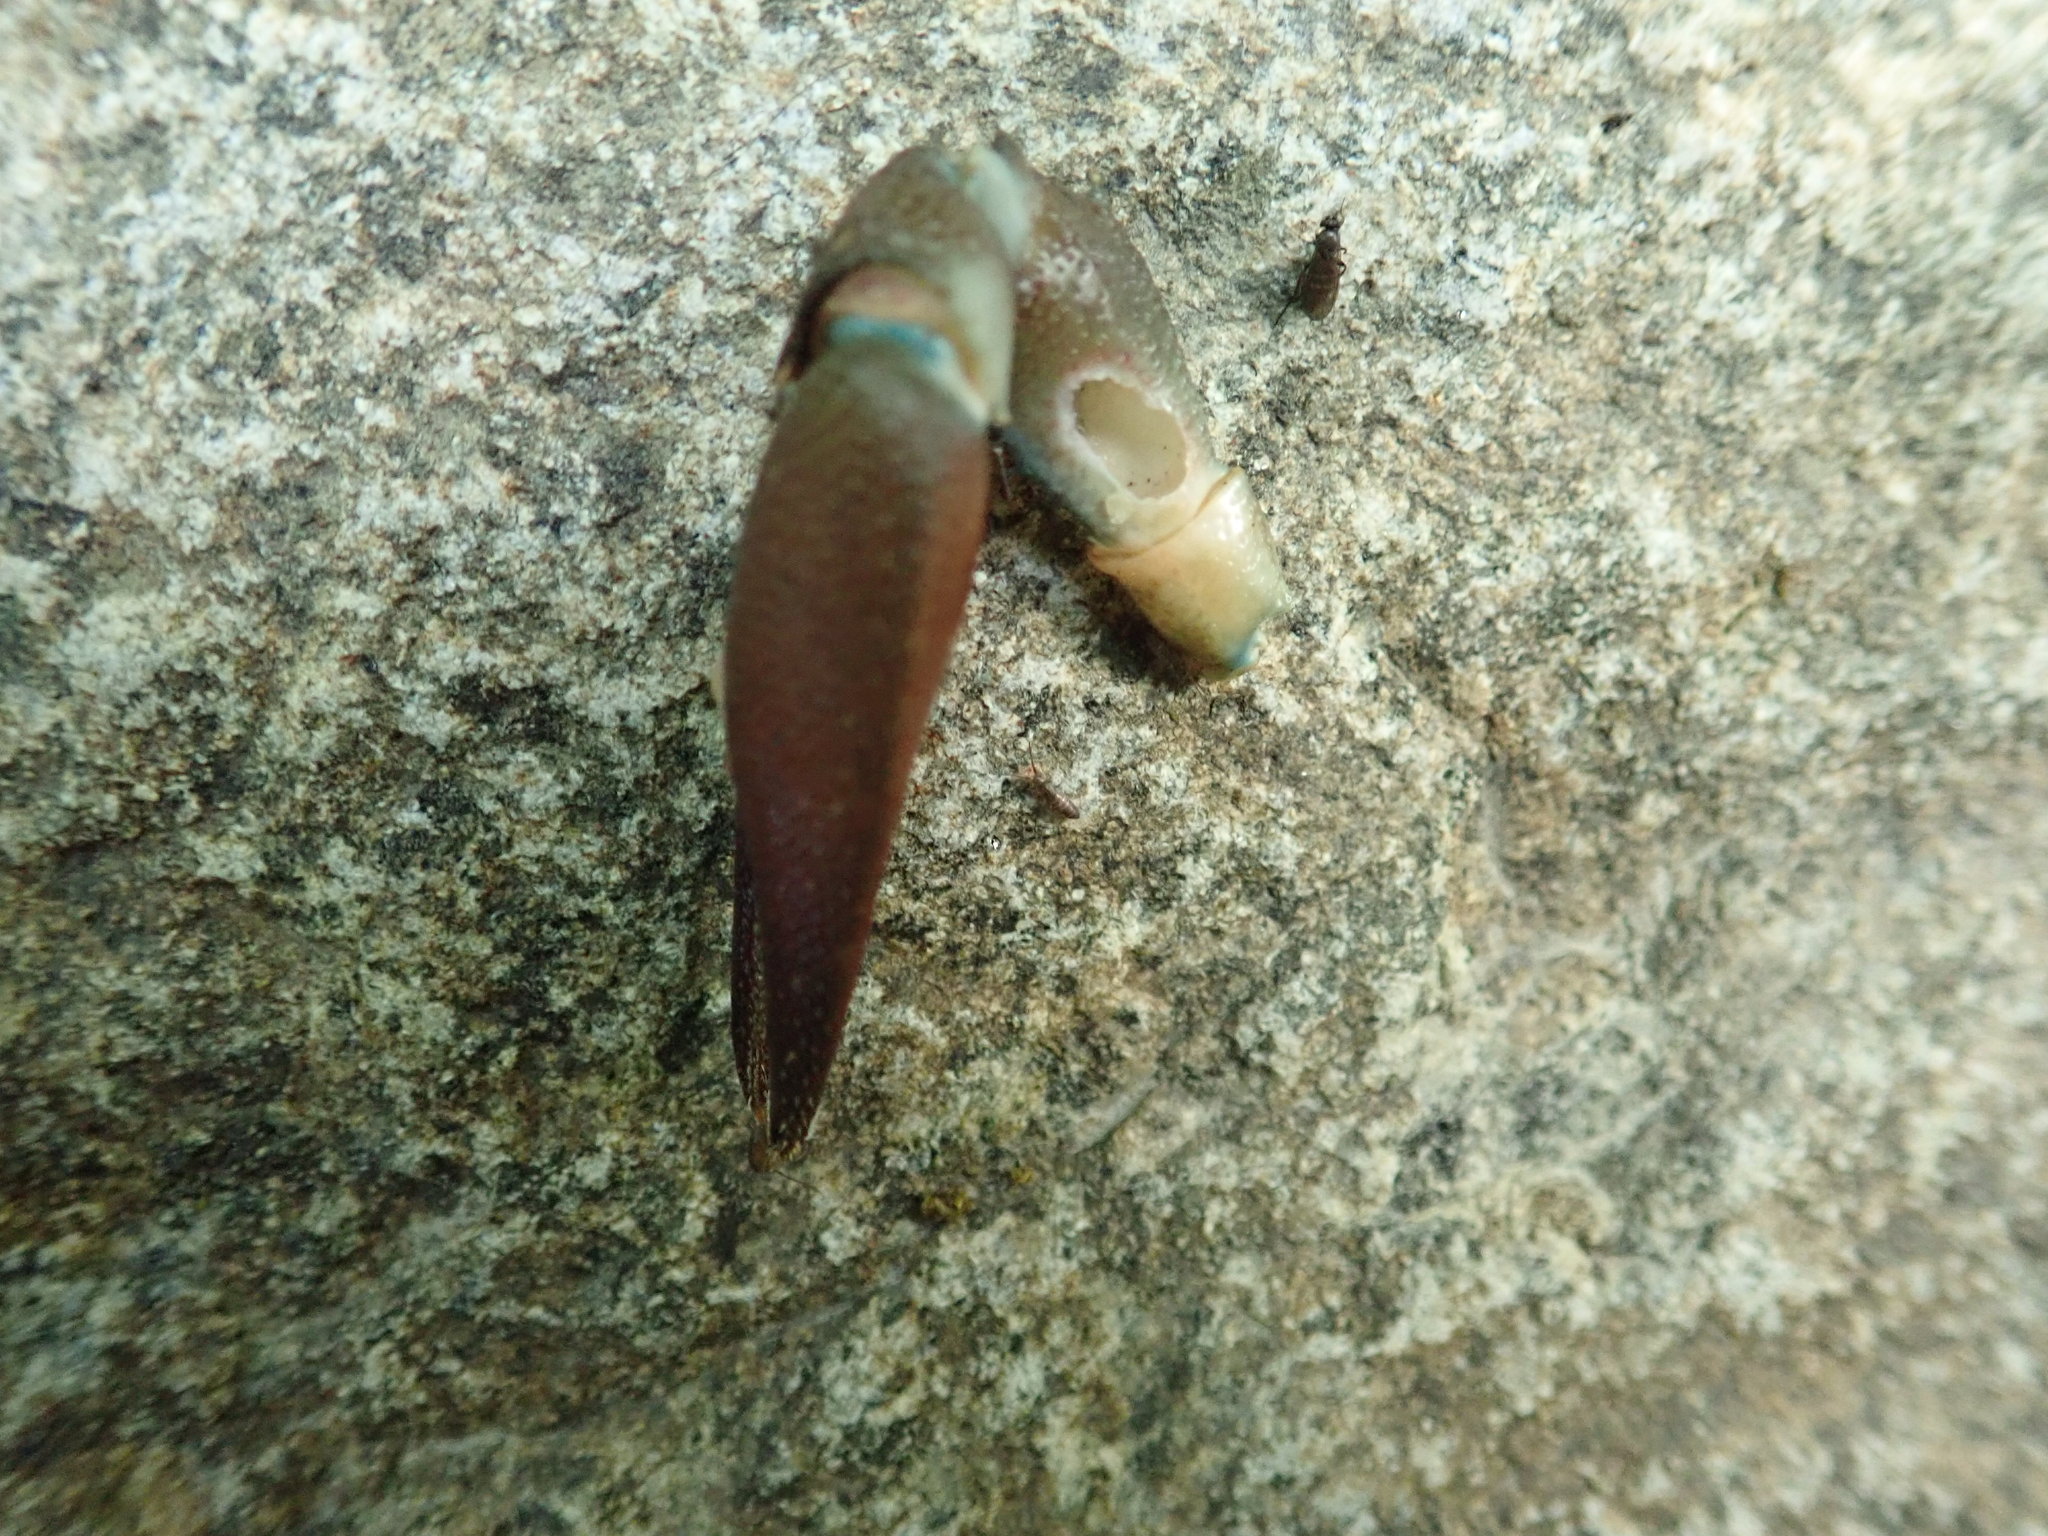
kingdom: Animalia
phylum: Arthropoda
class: Malacostraca
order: Decapoda
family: Astacidae
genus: Pacifastacus
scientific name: Pacifastacus leniusculus
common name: Signal crayfish
